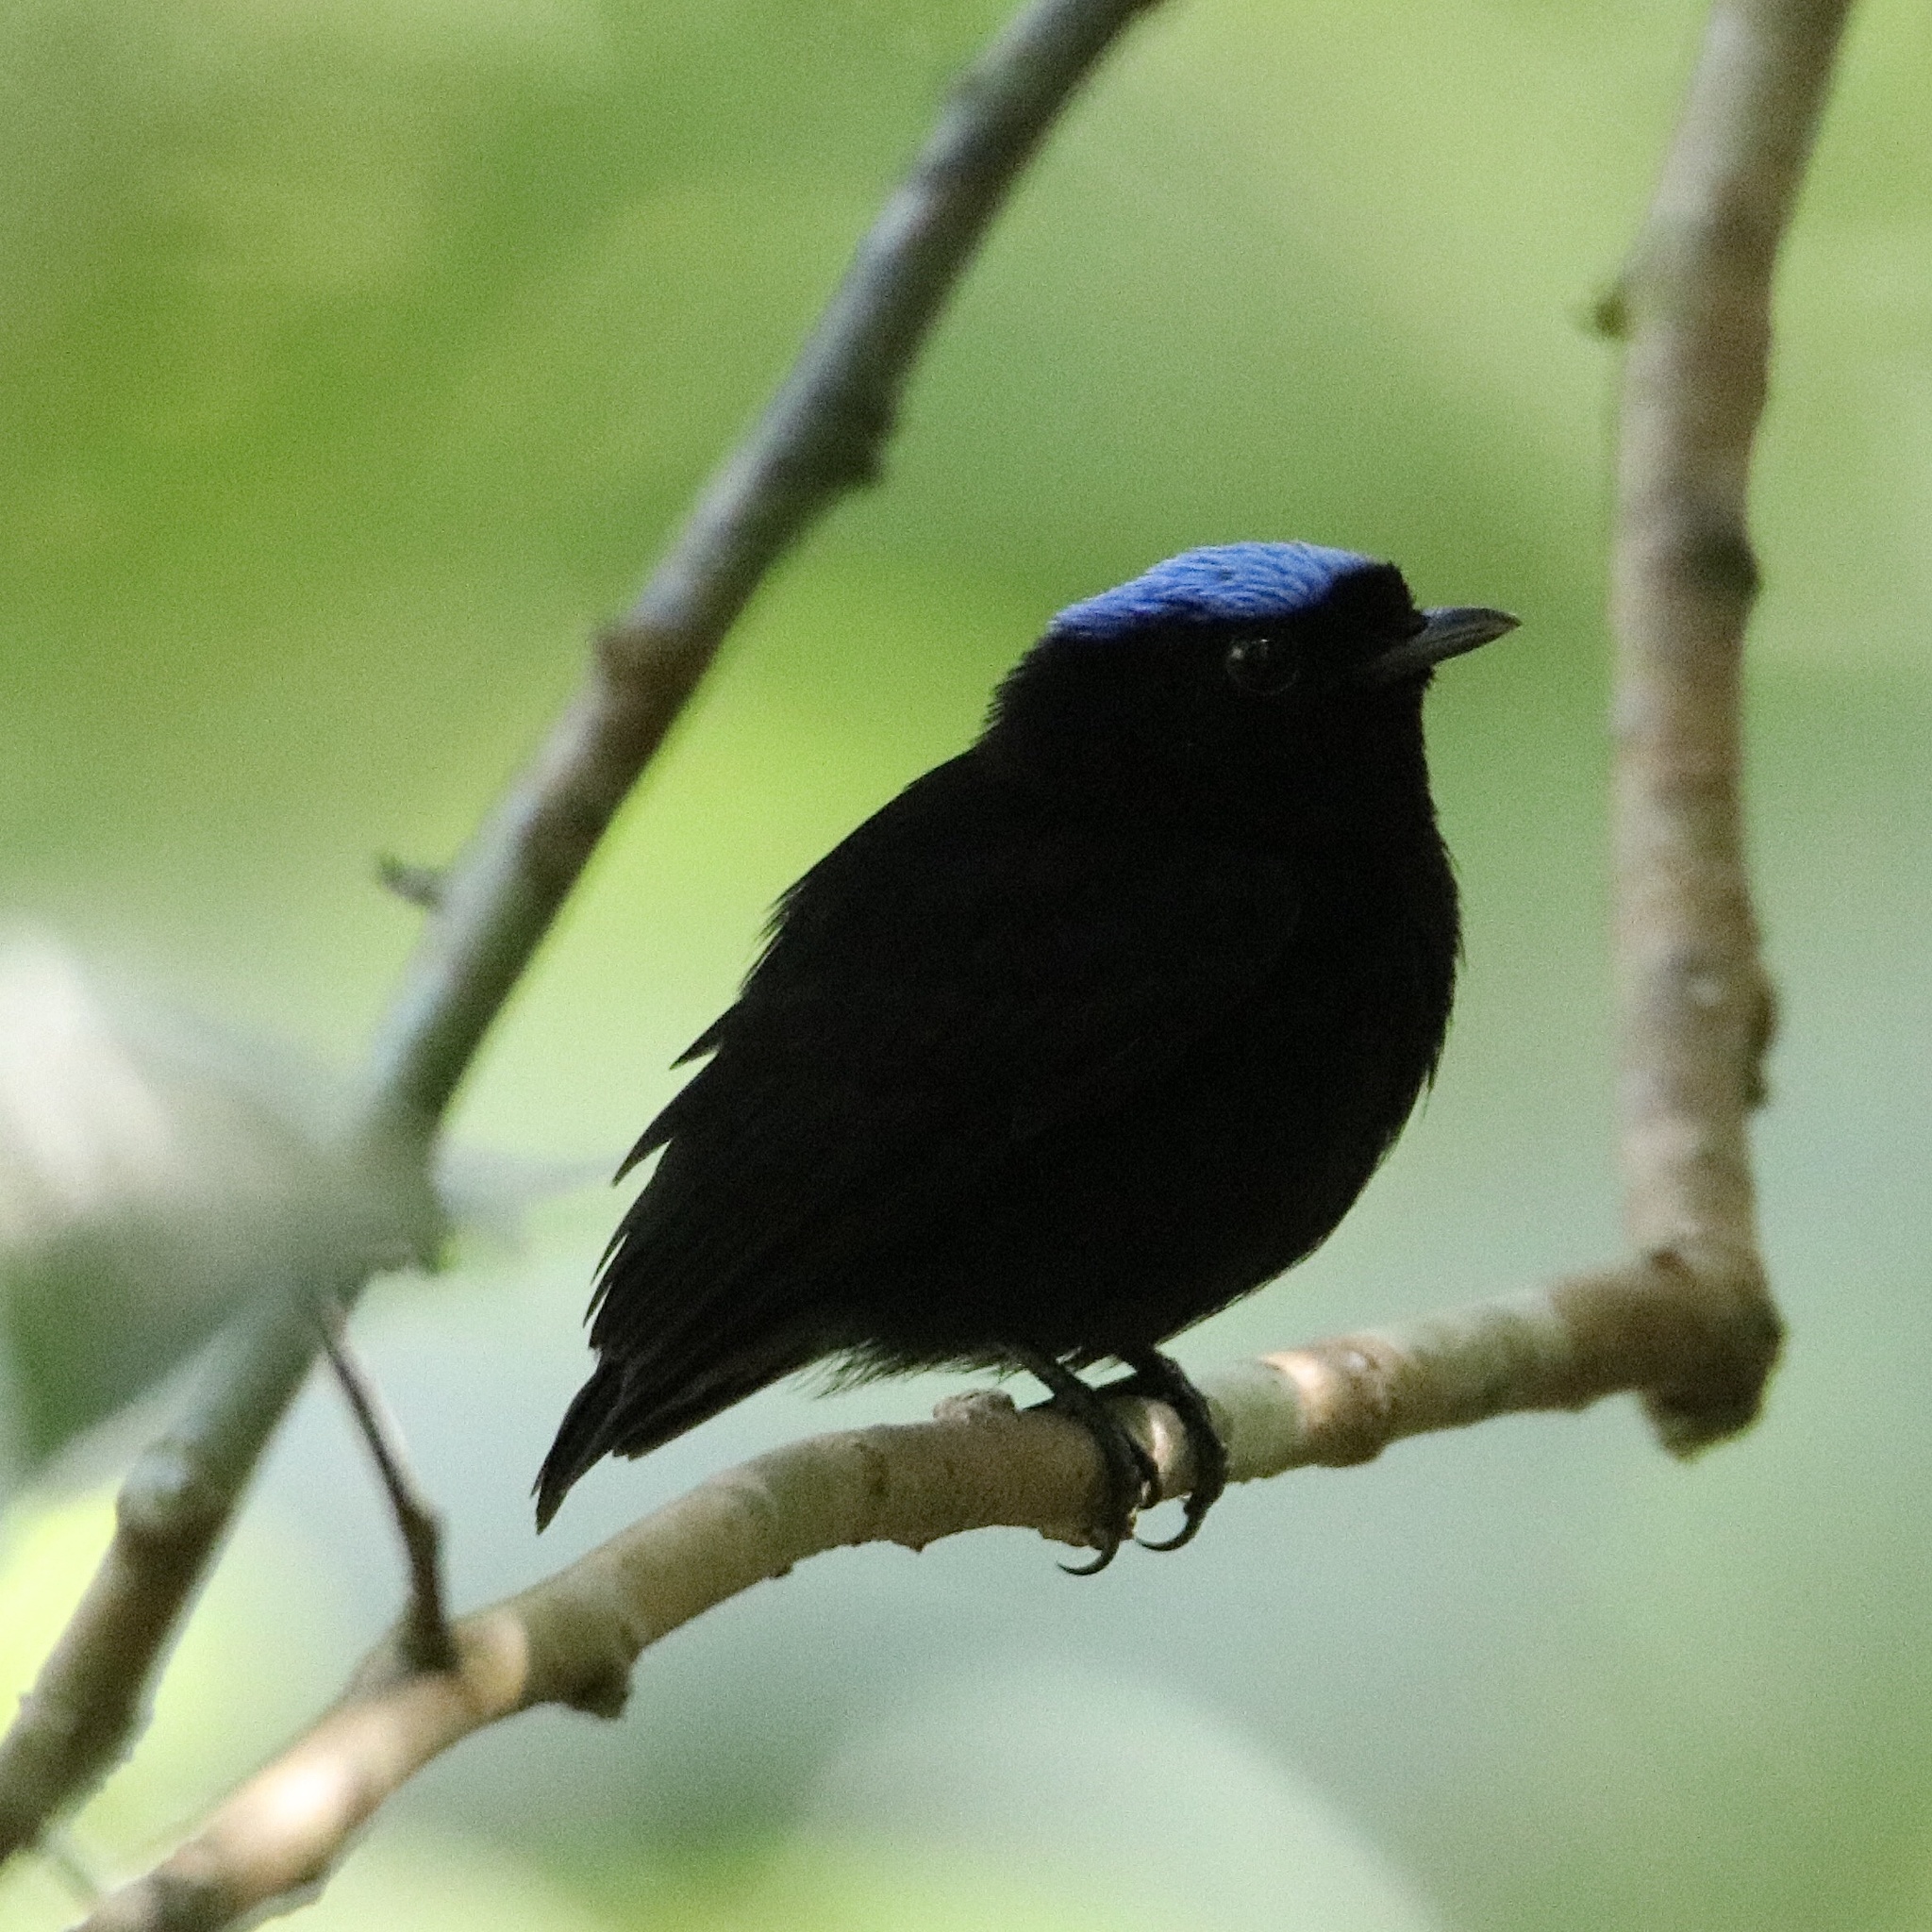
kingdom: Animalia
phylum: Chordata
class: Aves
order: Passeriformes
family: Pipridae
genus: Lepidothrix
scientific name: Lepidothrix coronata
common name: Blue-crowned manakin
